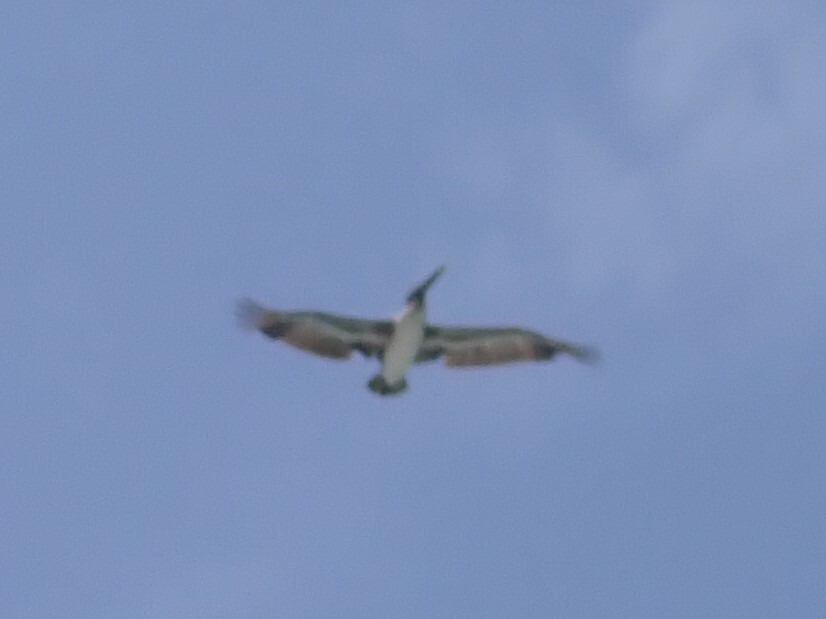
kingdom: Animalia
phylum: Chordata
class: Aves
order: Pelecaniformes
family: Pelecanidae
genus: Pelecanus
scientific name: Pelecanus occidentalis
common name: Brown pelican
